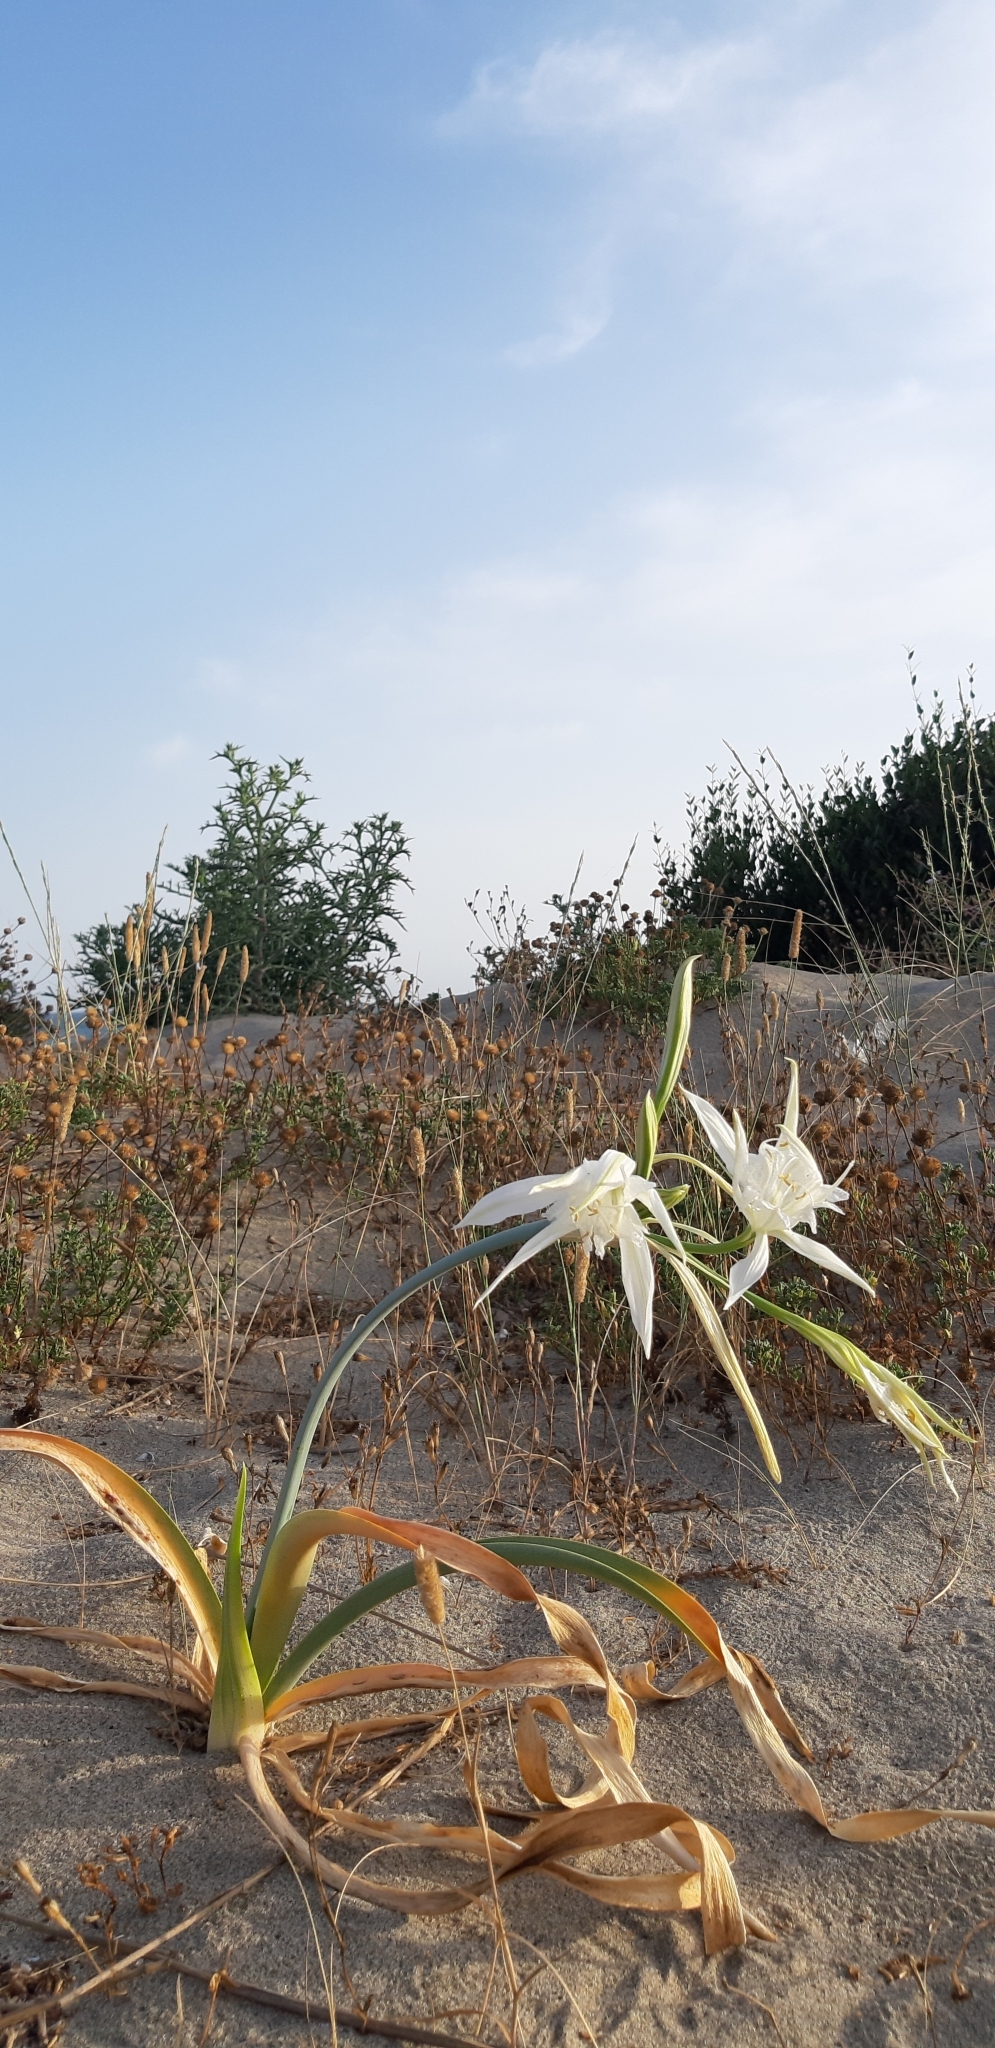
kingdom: Plantae
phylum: Tracheophyta
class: Liliopsida
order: Asparagales
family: Amaryllidaceae
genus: Pancratium
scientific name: Pancratium maritimum
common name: Sea-daffodil
